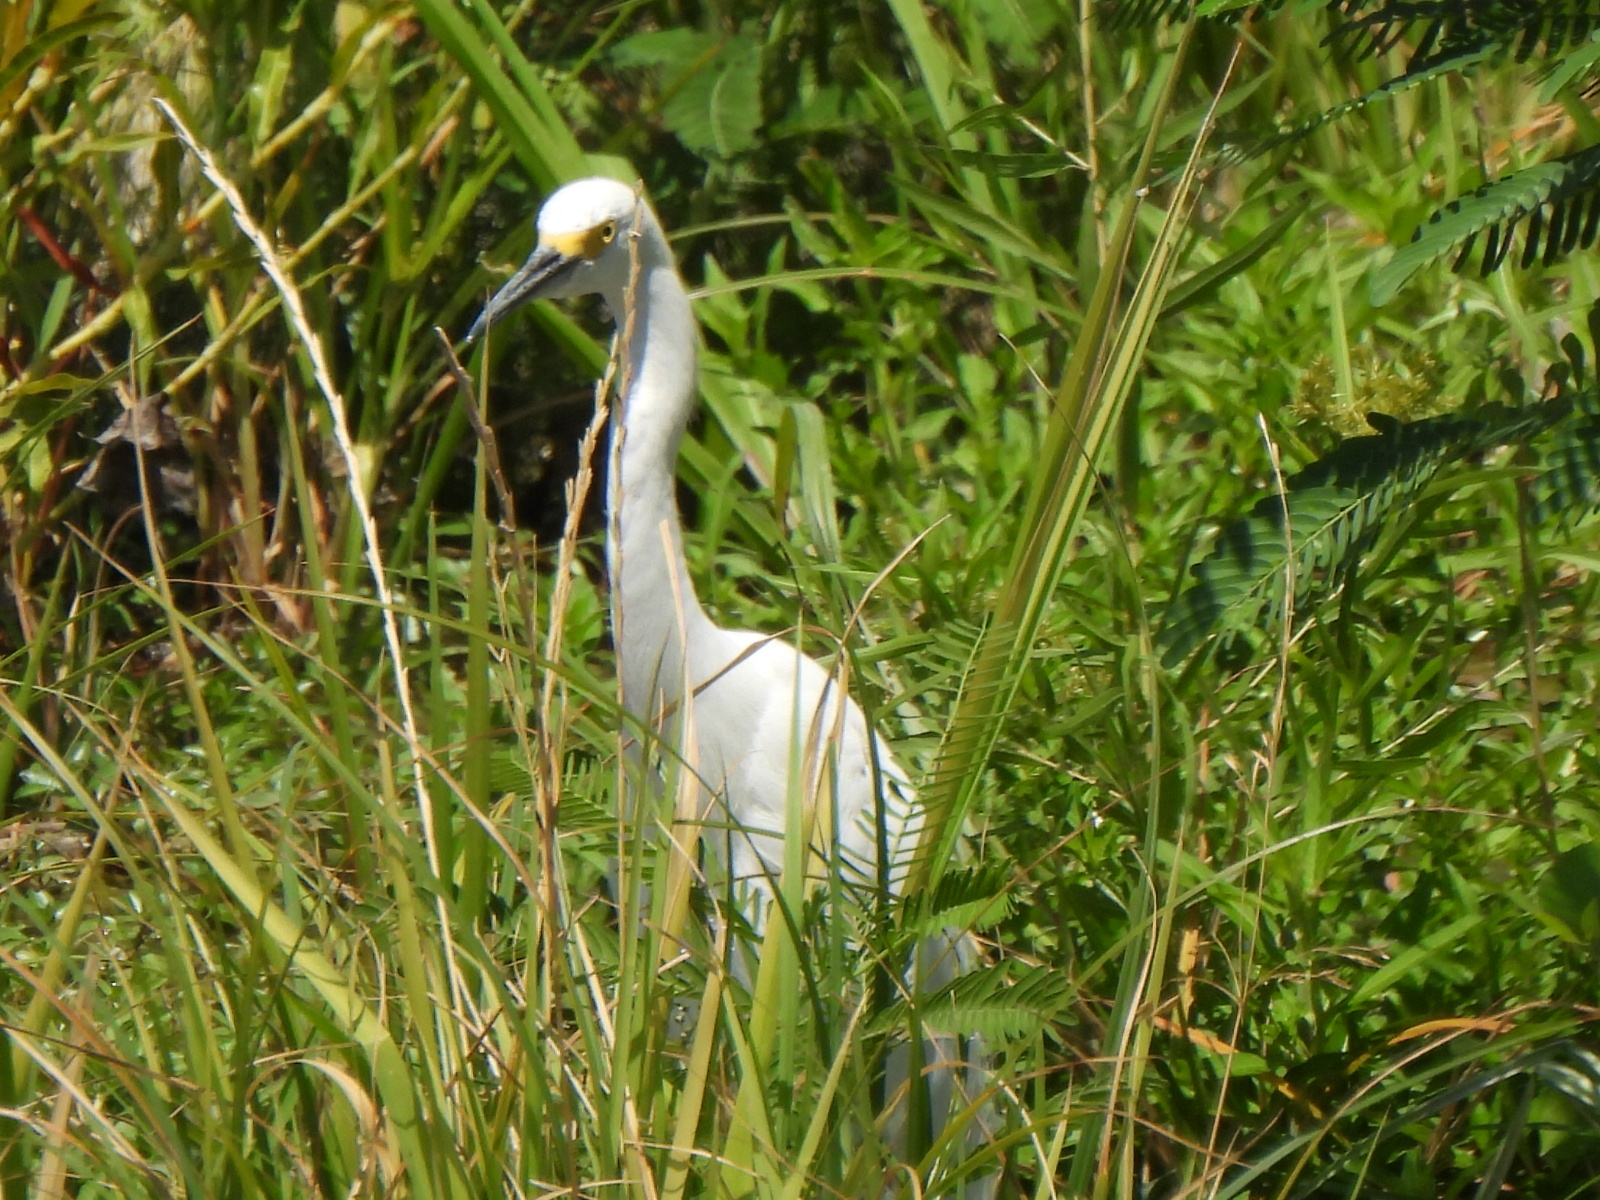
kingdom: Animalia
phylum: Chordata
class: Aves
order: Pelecaniformes
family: Ardeidae
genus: Egretta
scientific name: Egretta thula
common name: Snowy egret
